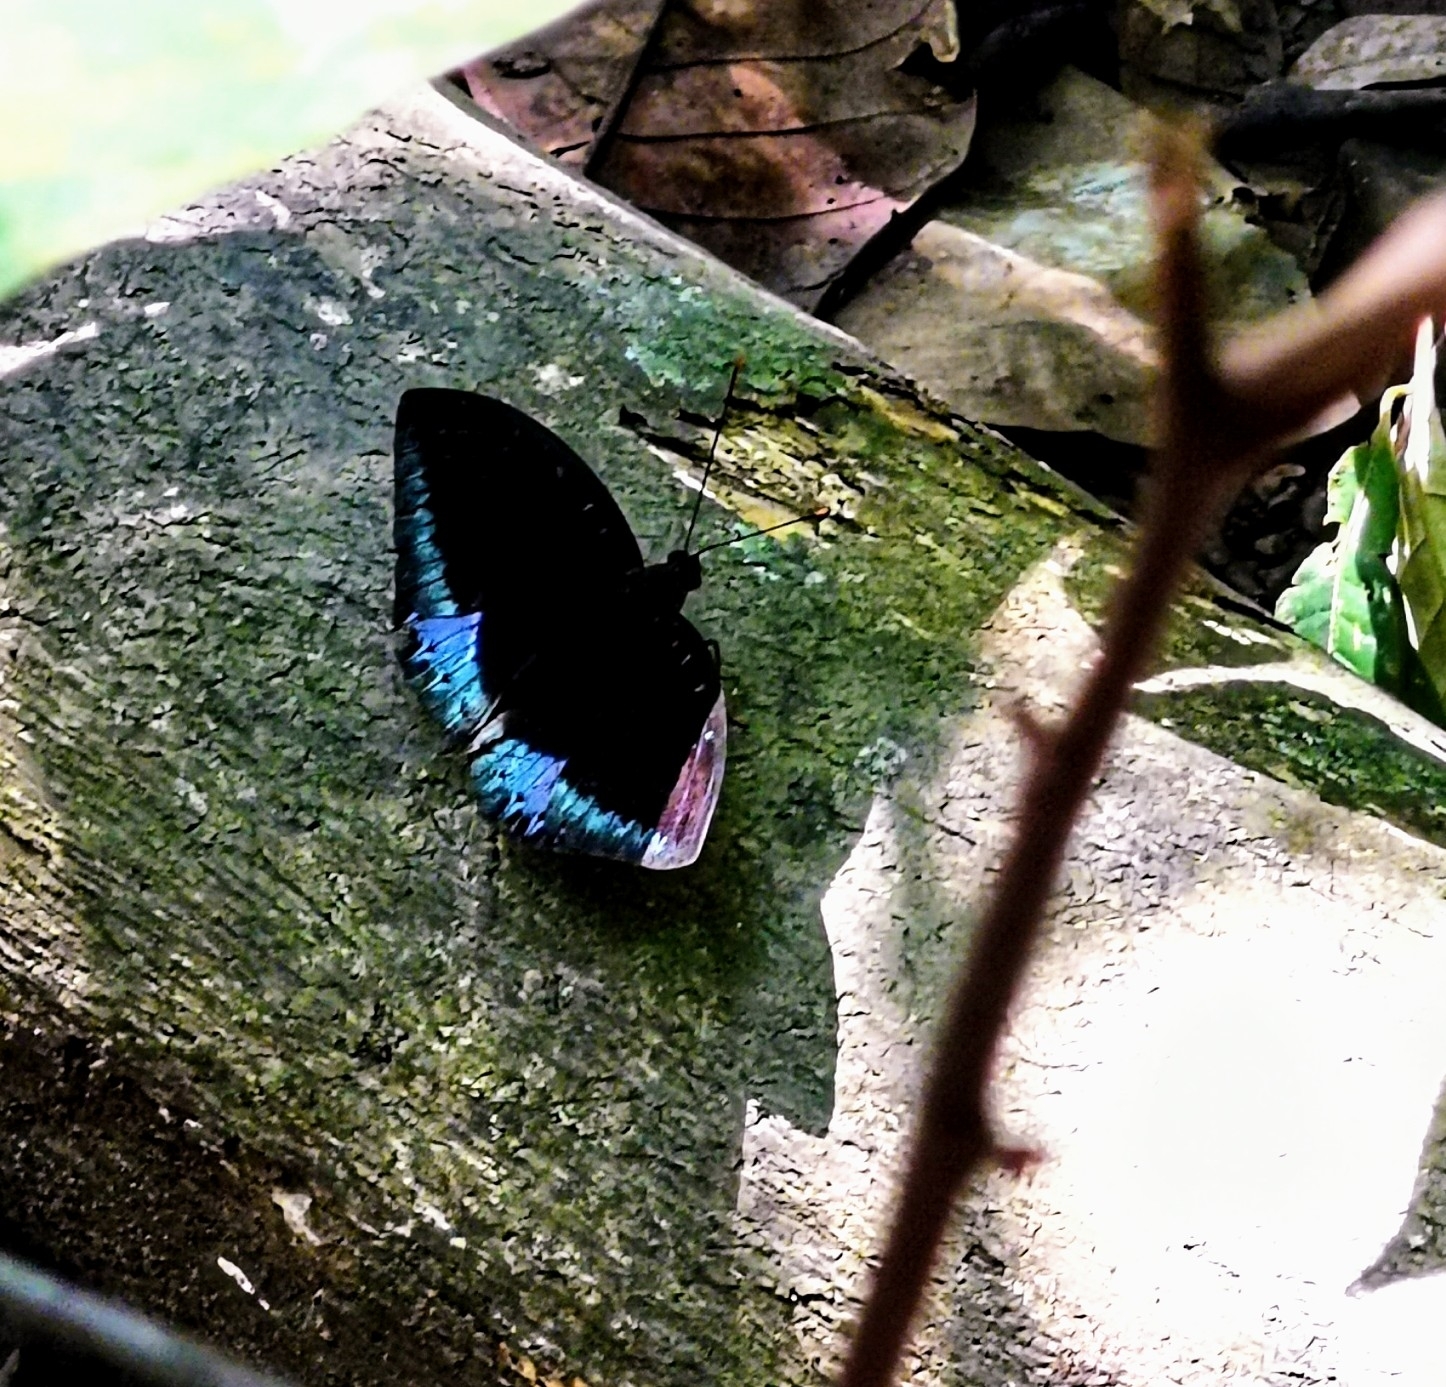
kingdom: Animalia
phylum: Arthropoda
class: Insecta
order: Lepidoptera
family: Nymphalidae
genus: Lexias
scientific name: Lexias pardalis
